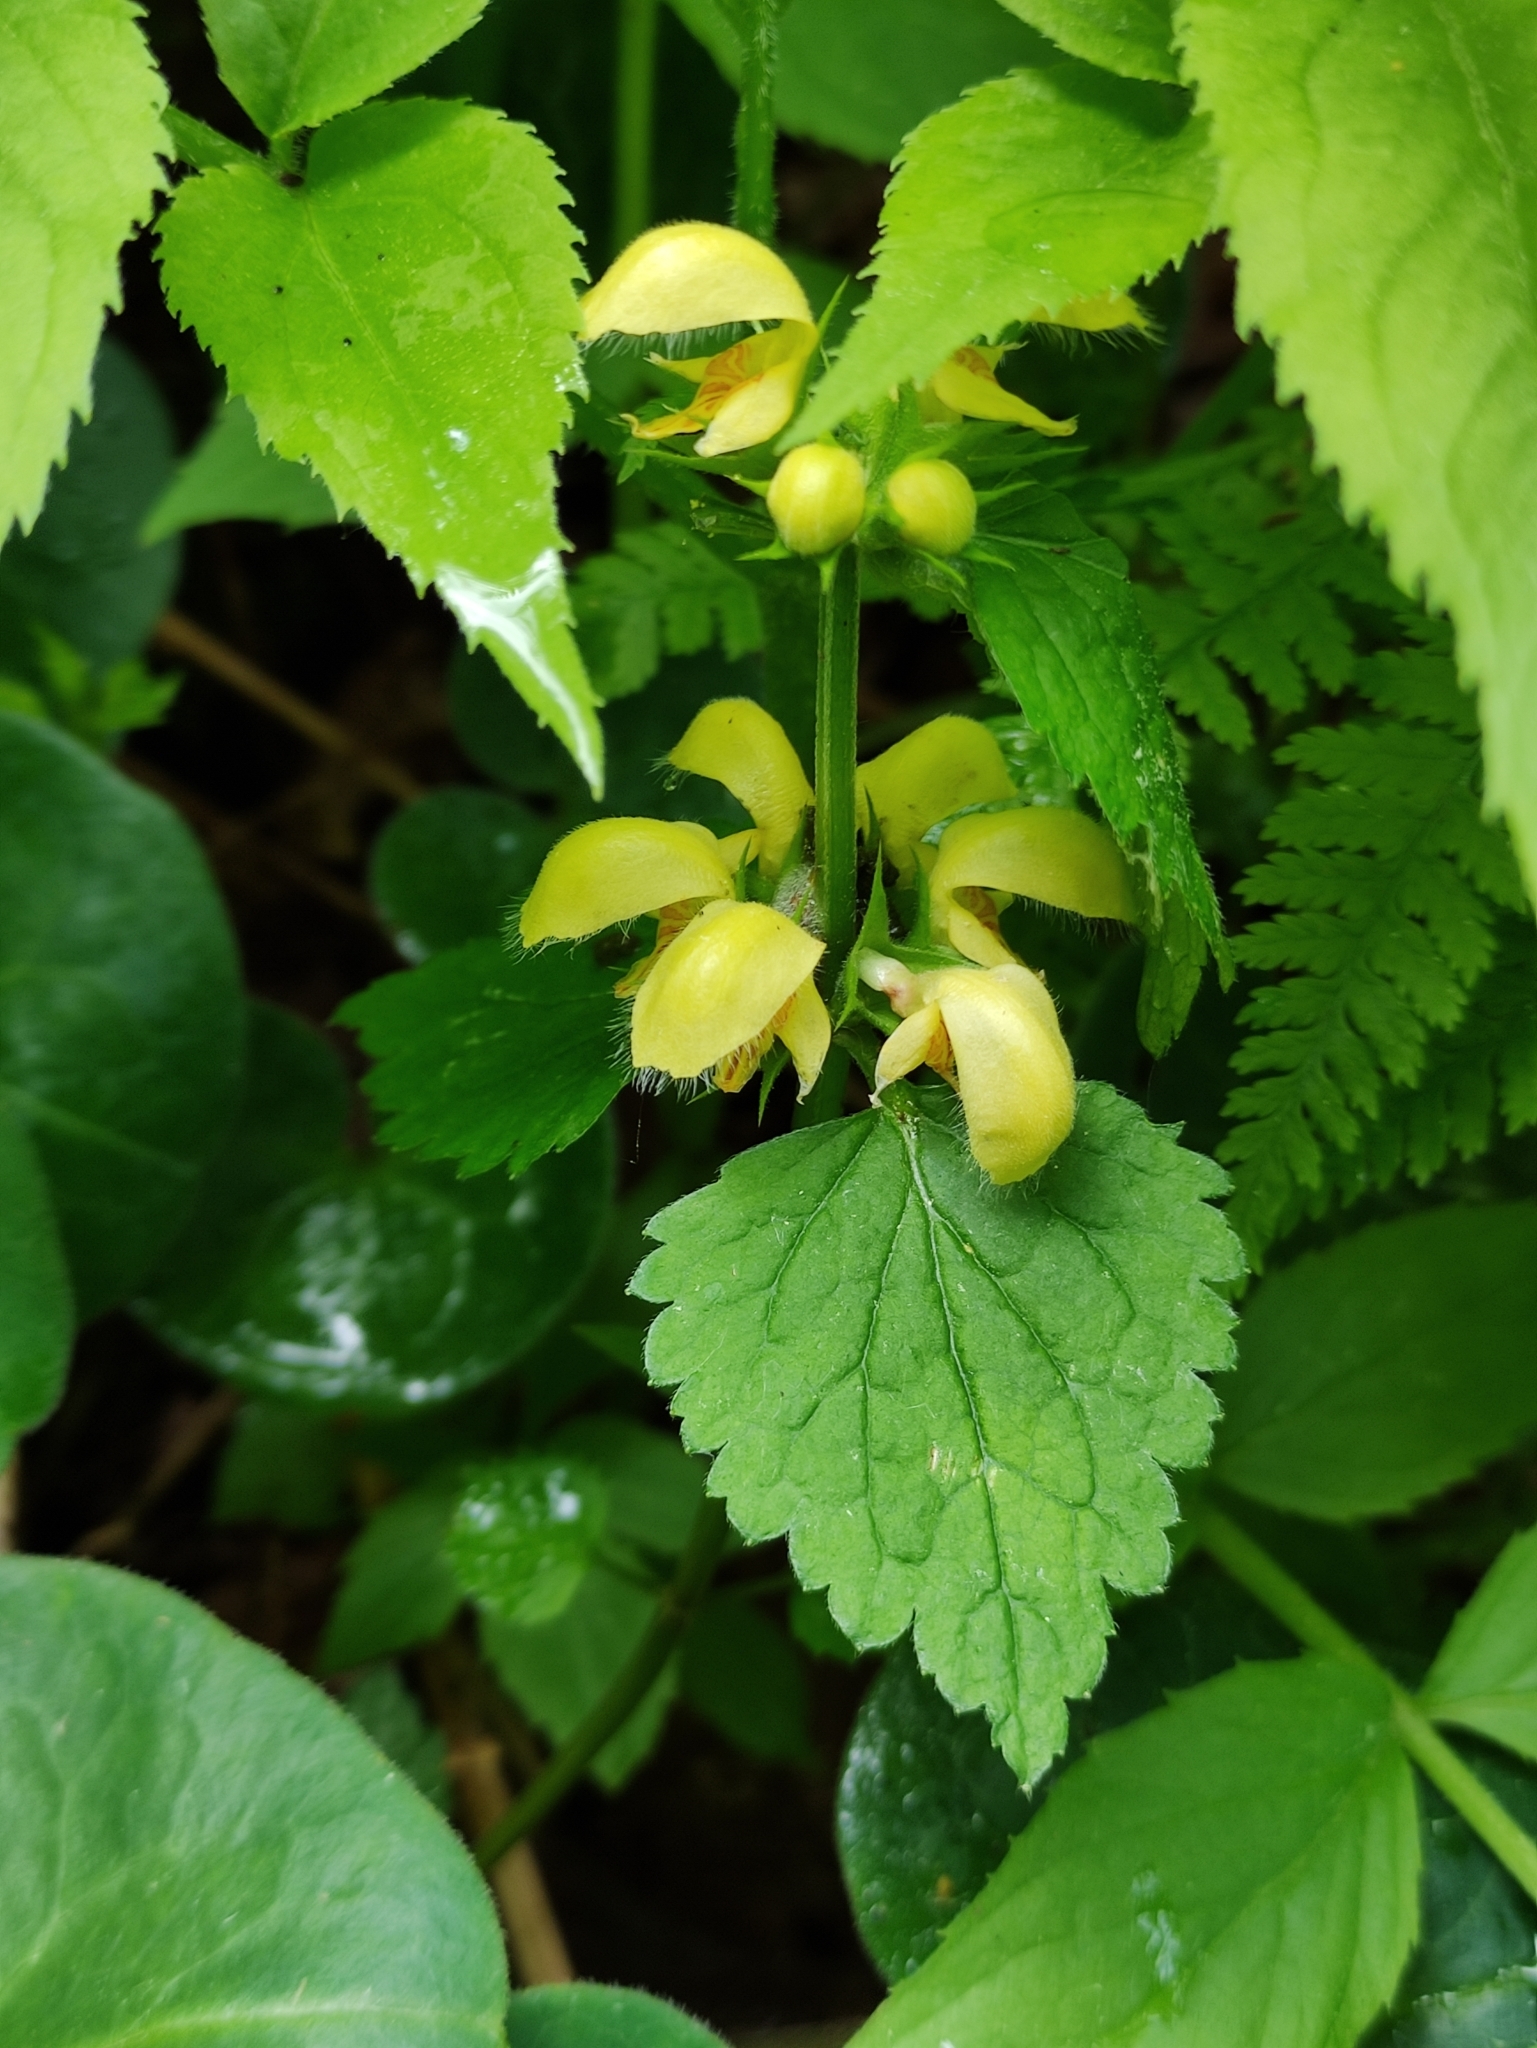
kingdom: Plantae
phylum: Tracheophyta
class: Magnoliopsida
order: Lamiales
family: Lamiaceae
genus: Lamium
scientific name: Lamium galeobdolon
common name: Yellow archangel
